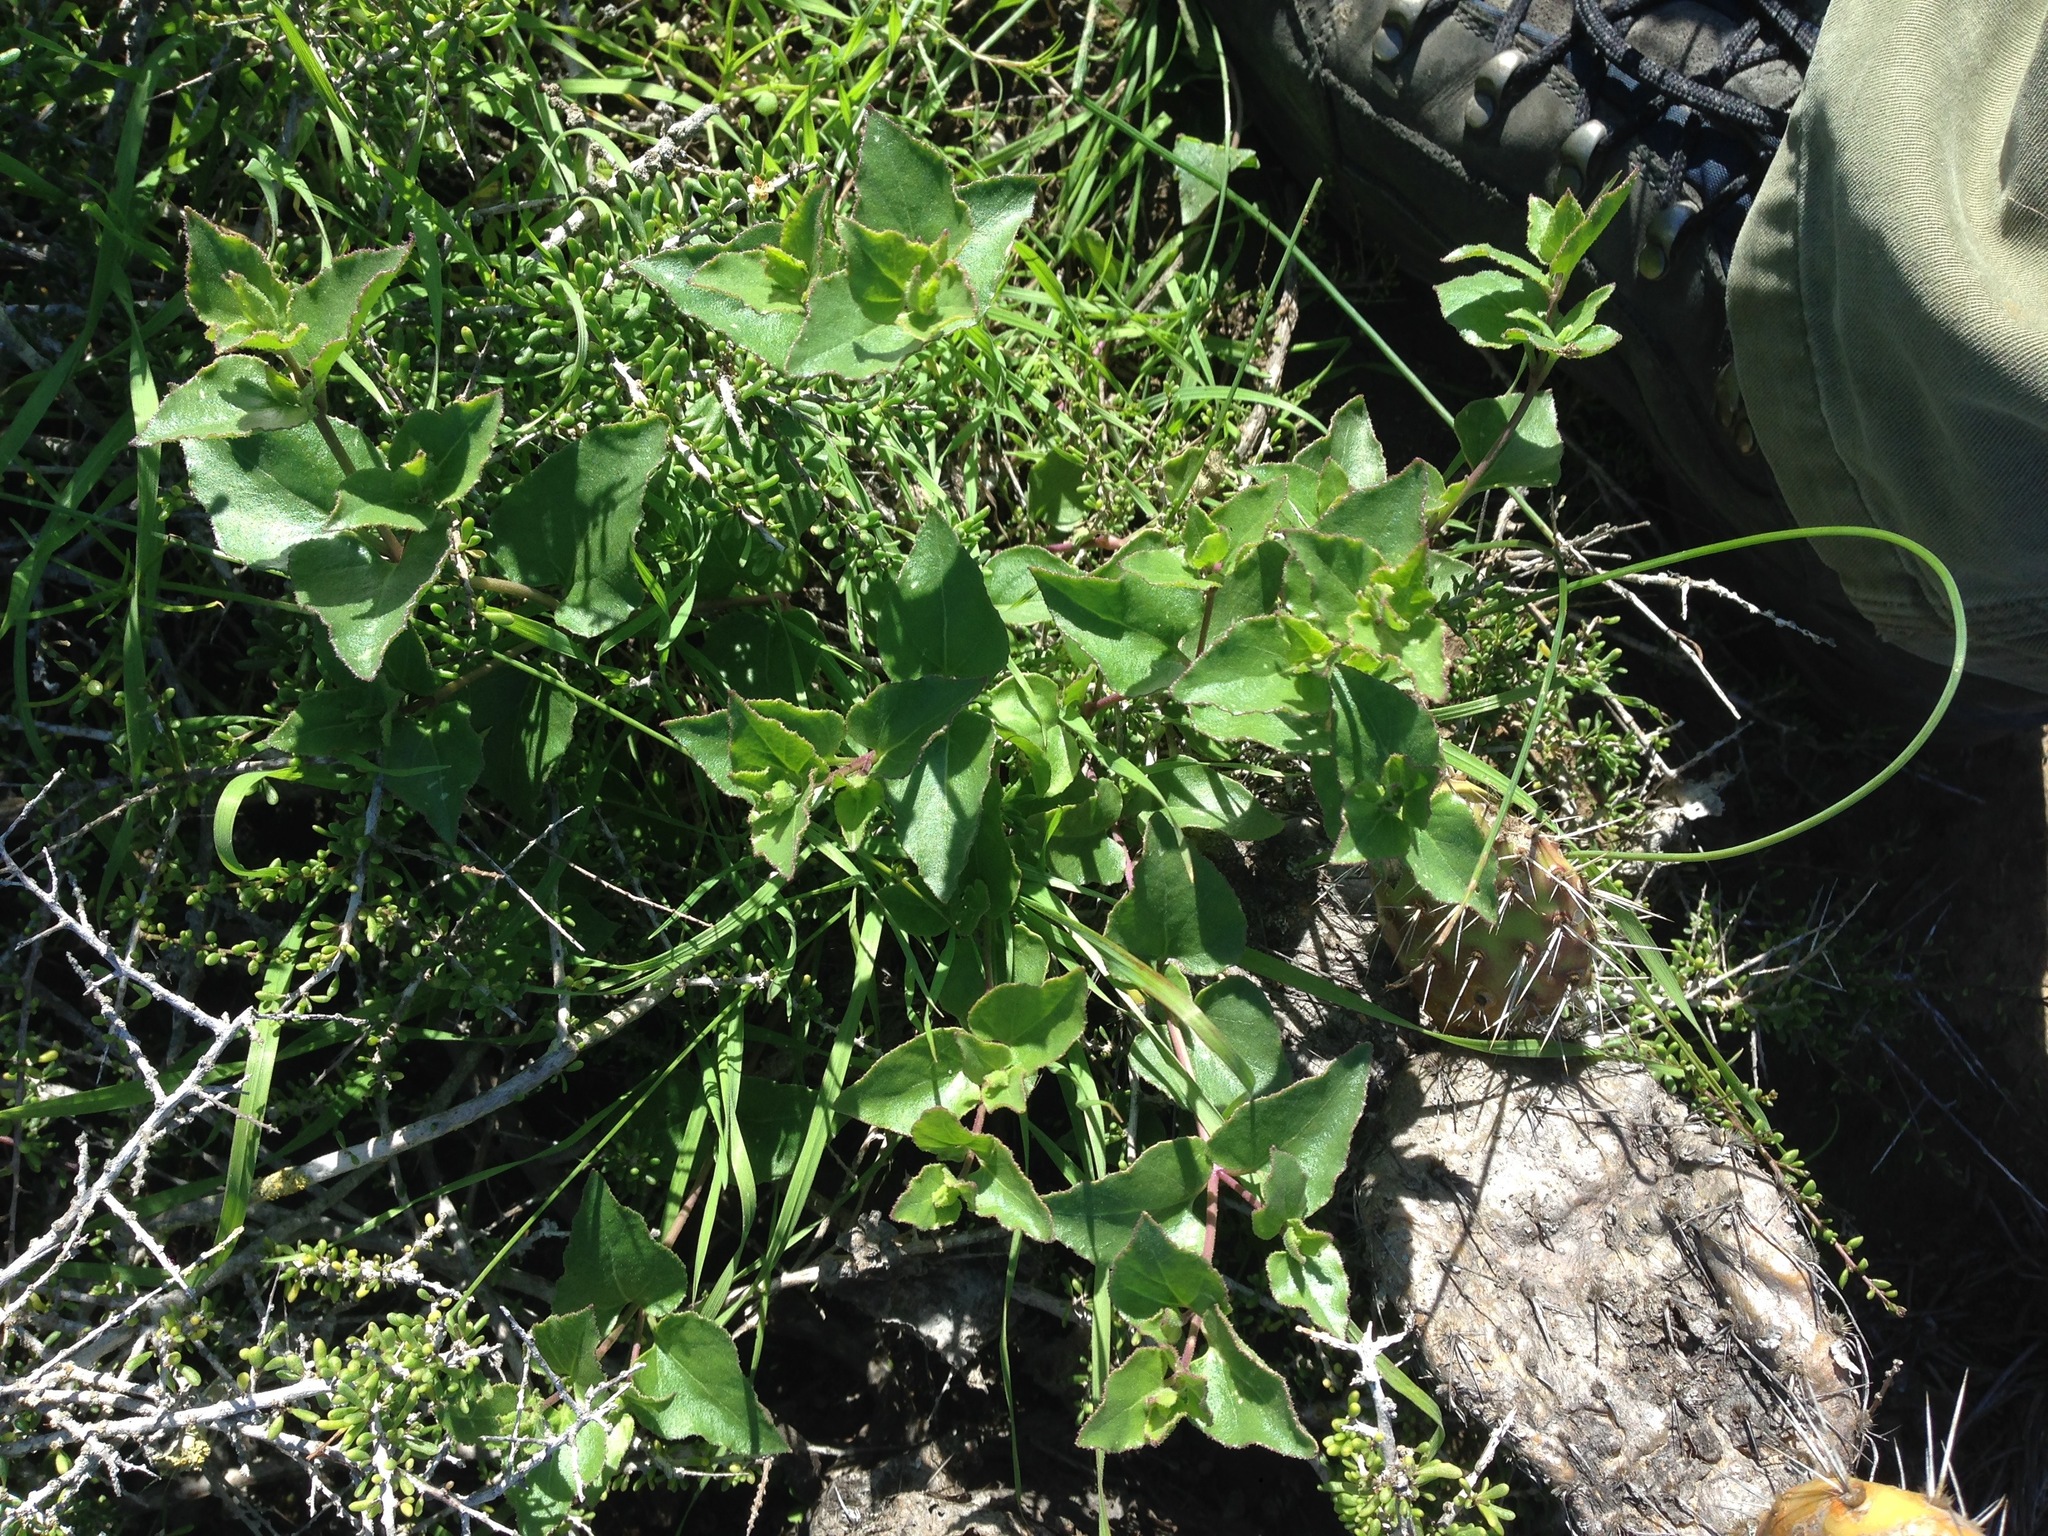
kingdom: Plantae
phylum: Tracheophyta
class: Magnoliopsida
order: Caryophyllales
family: Nyctaginaceae
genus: Mirabilis
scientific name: Mirabilis laevis
